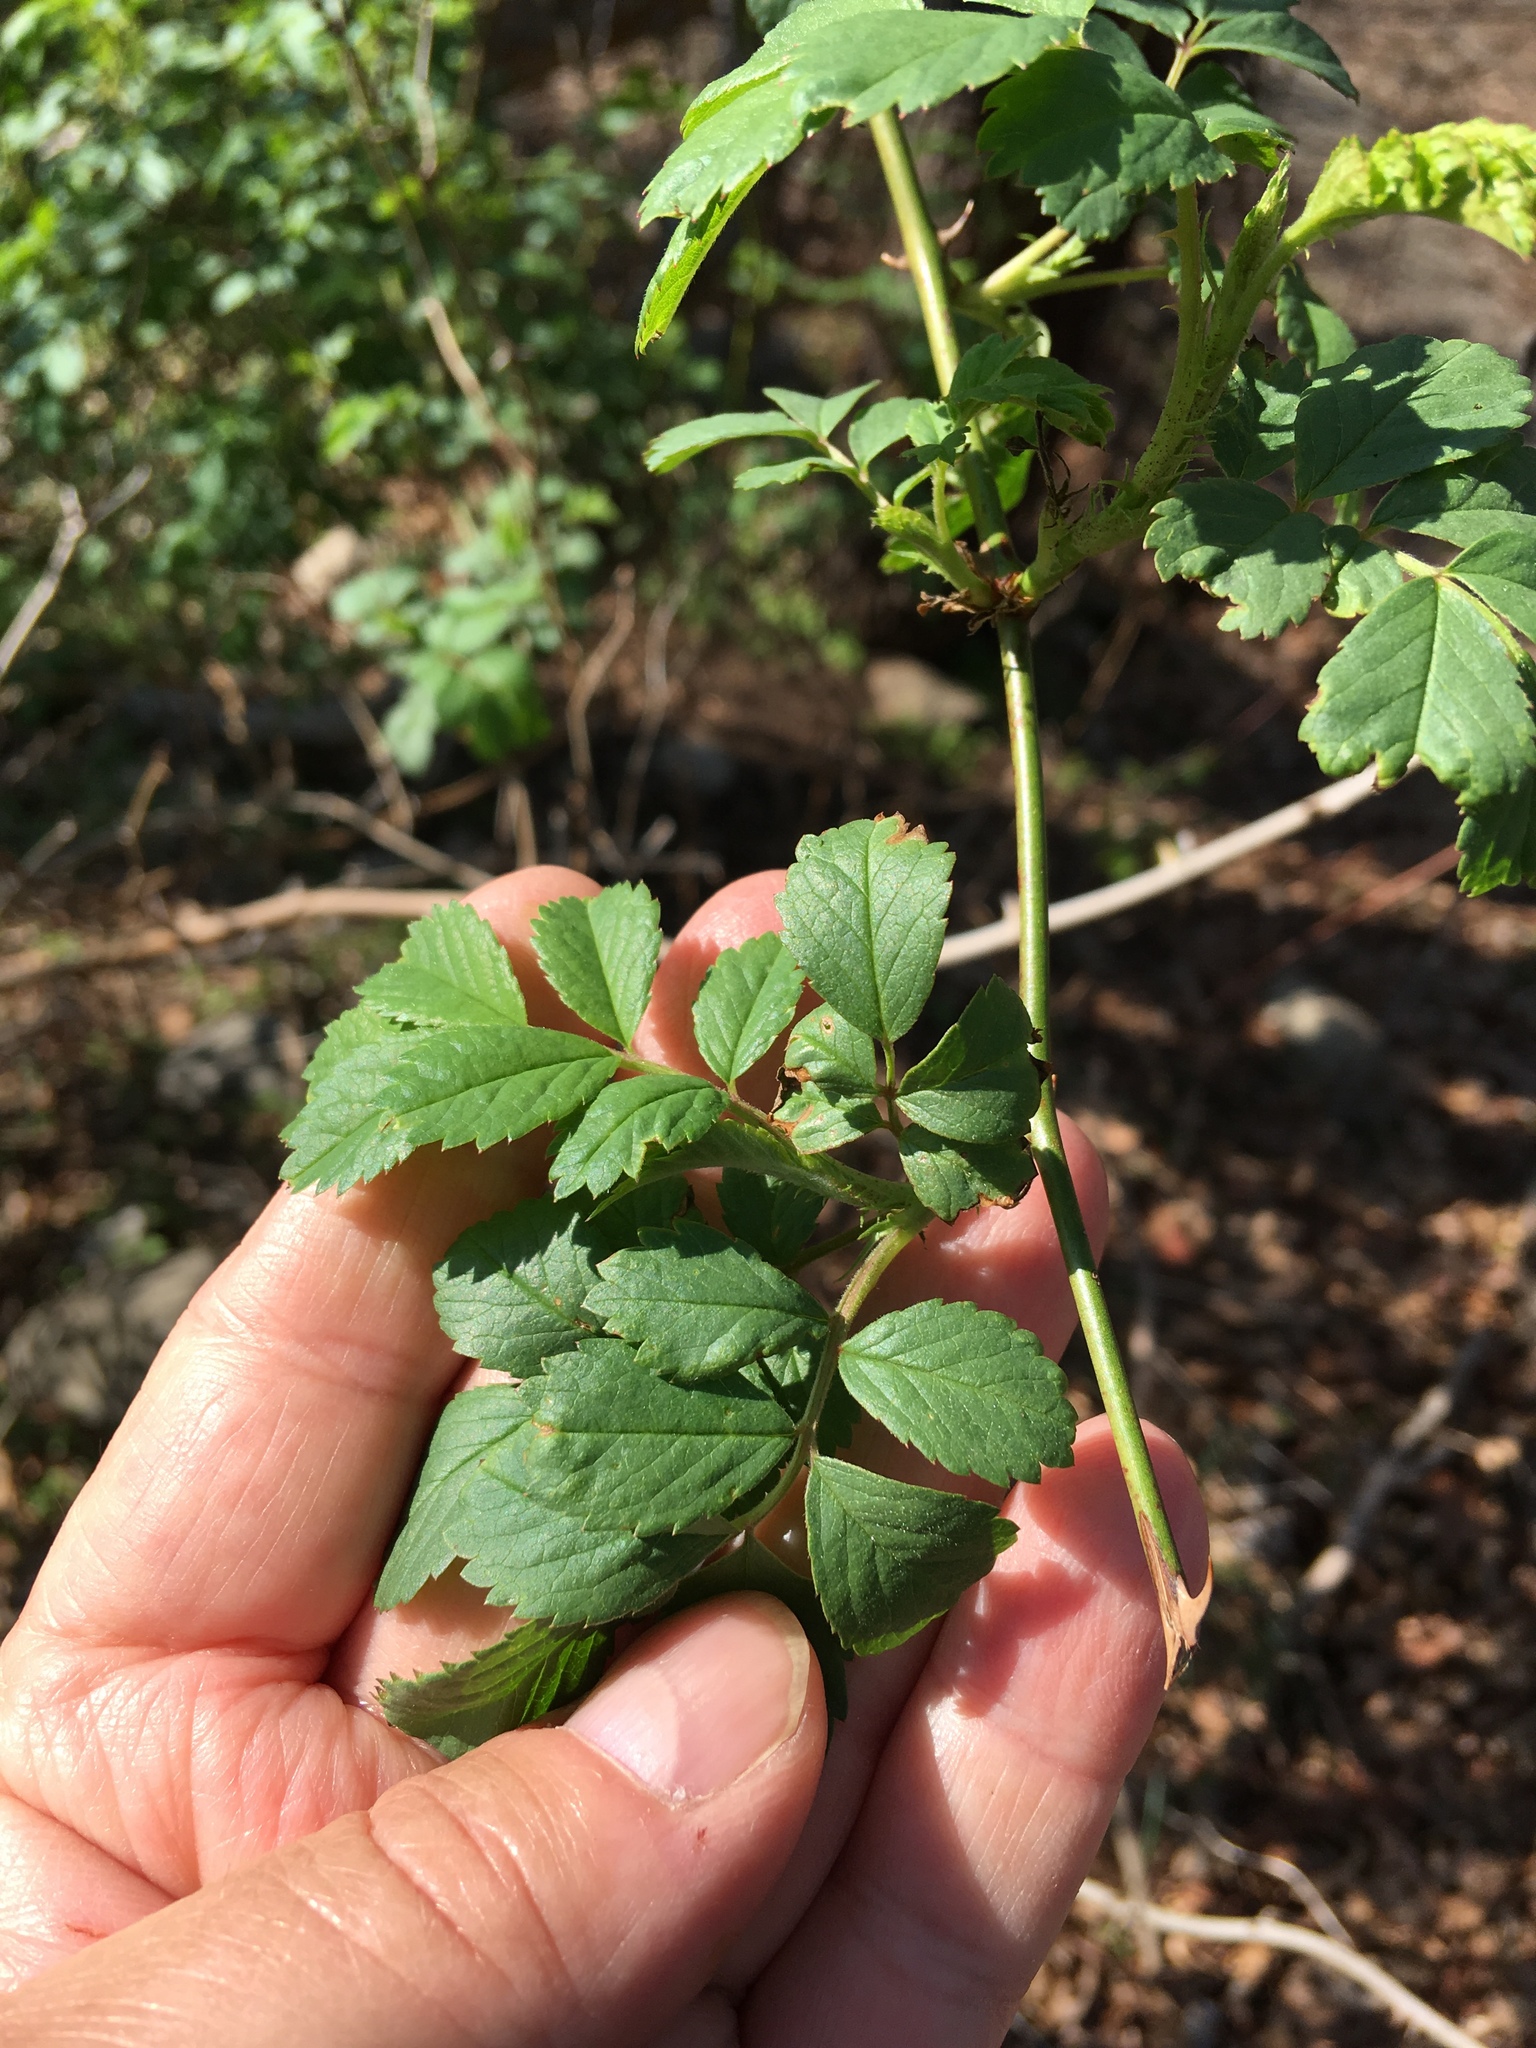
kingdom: Plantae
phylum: Tracheophyta
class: Magnoliopsida
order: Rosales
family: Rosaceae
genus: Rosa
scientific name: Rosa multiflora
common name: Multiflora rose
